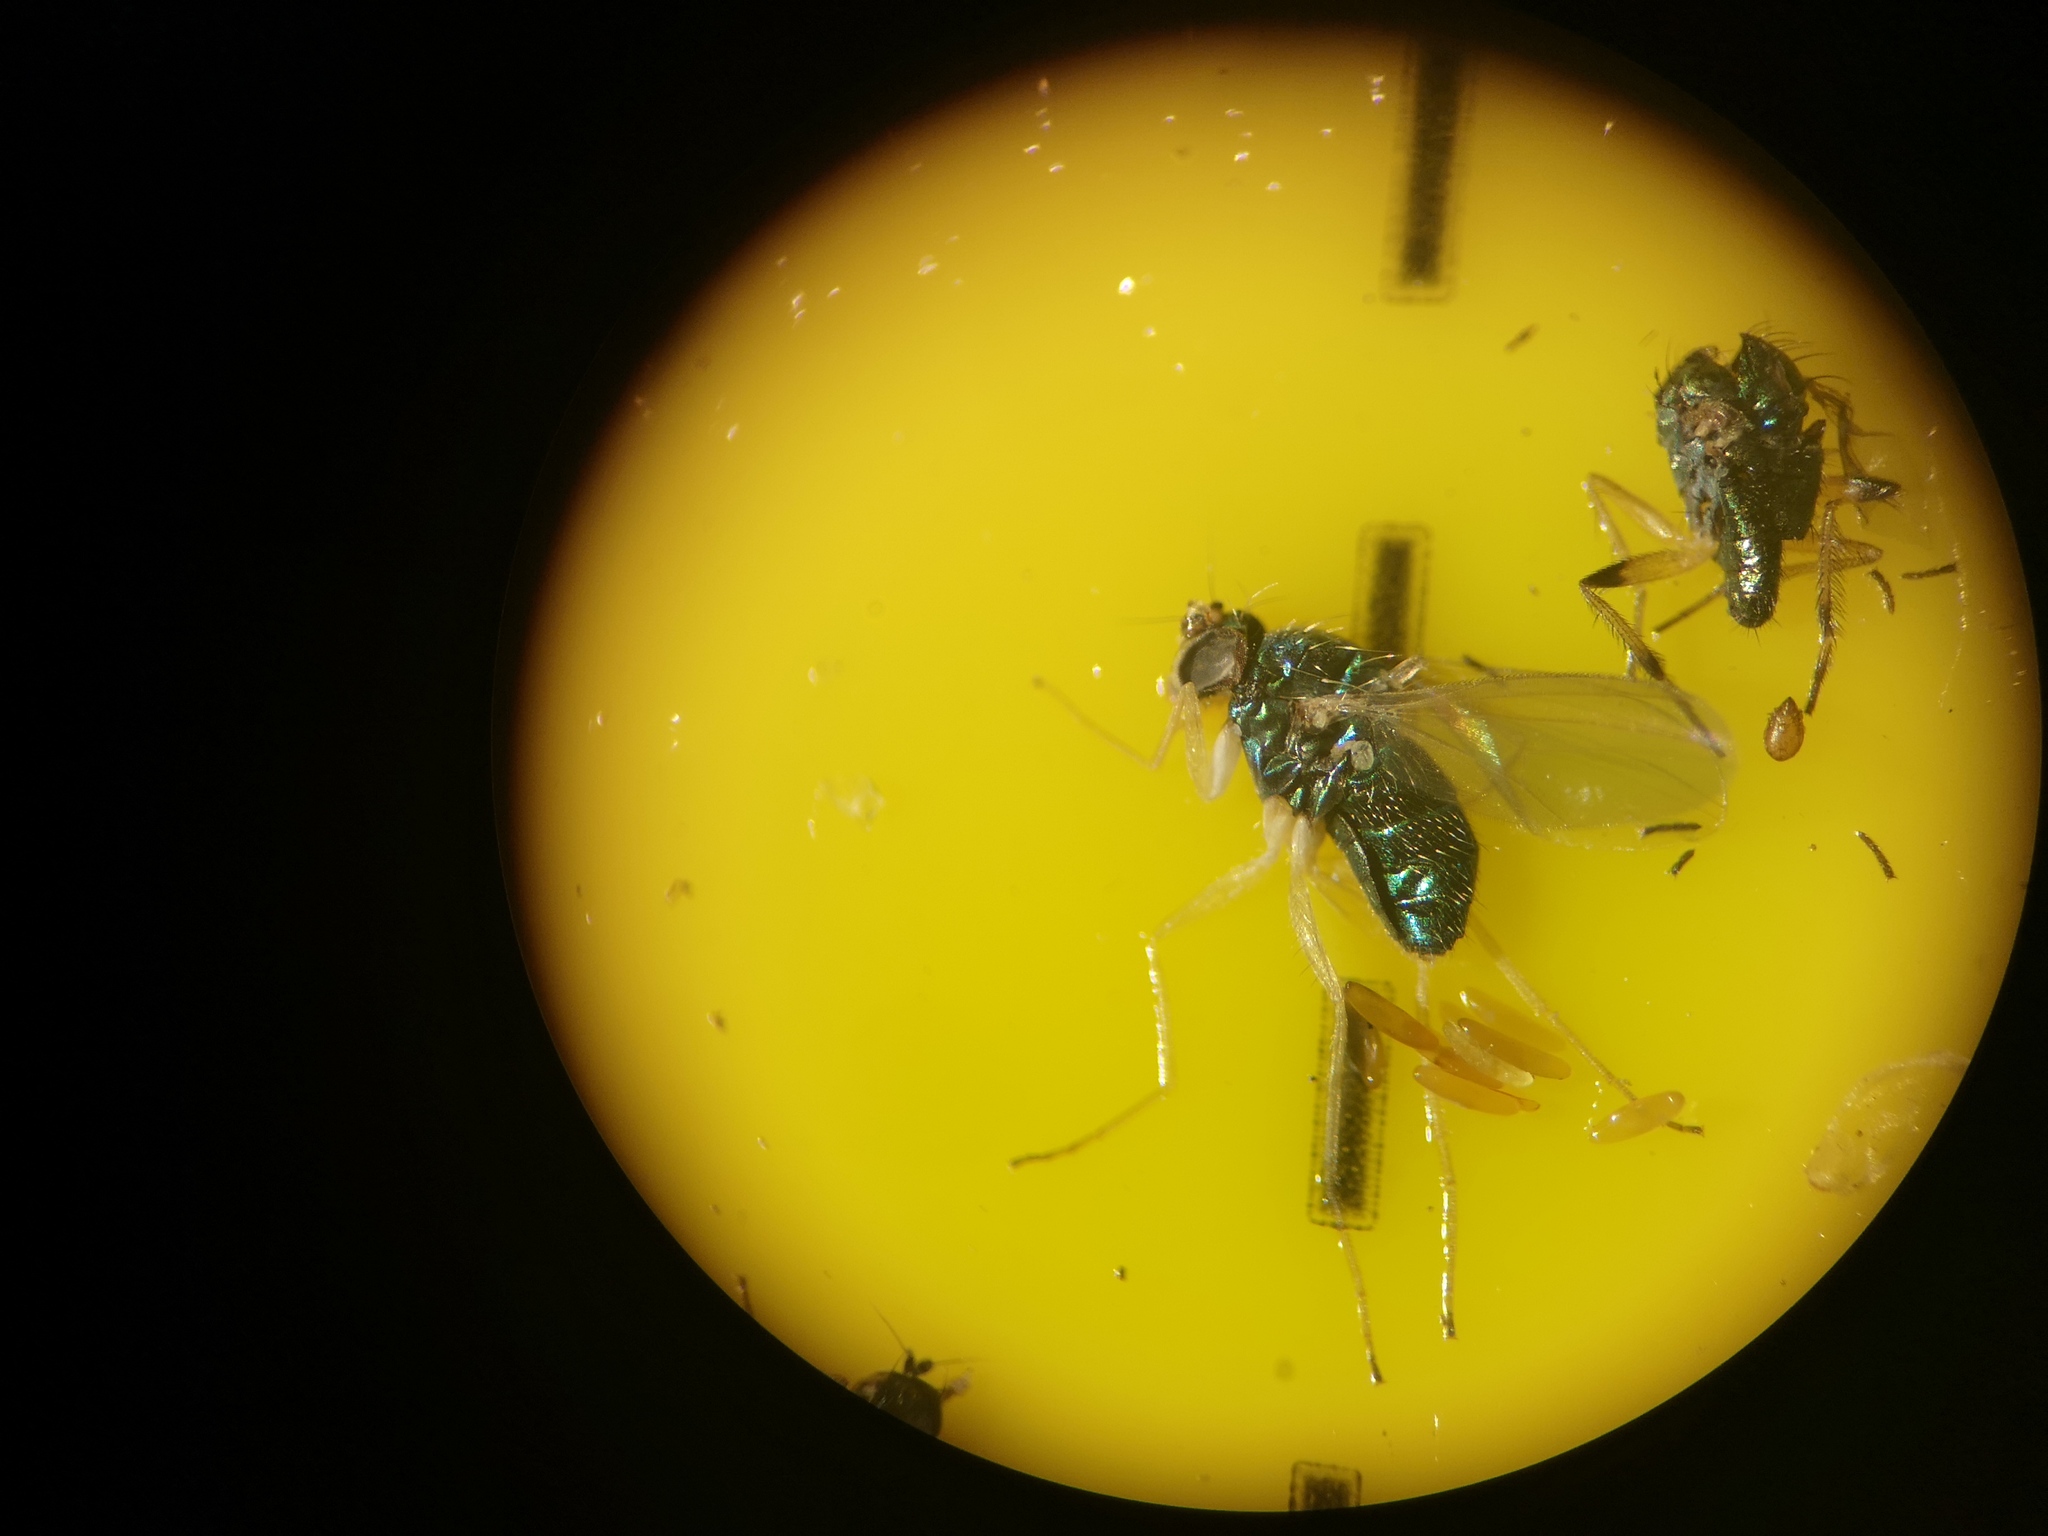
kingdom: Animalia
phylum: Arthropoda
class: Insecta
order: Diptera
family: Dolichopodidae
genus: Chrysotimus
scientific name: Chrysotimus flaviventris
